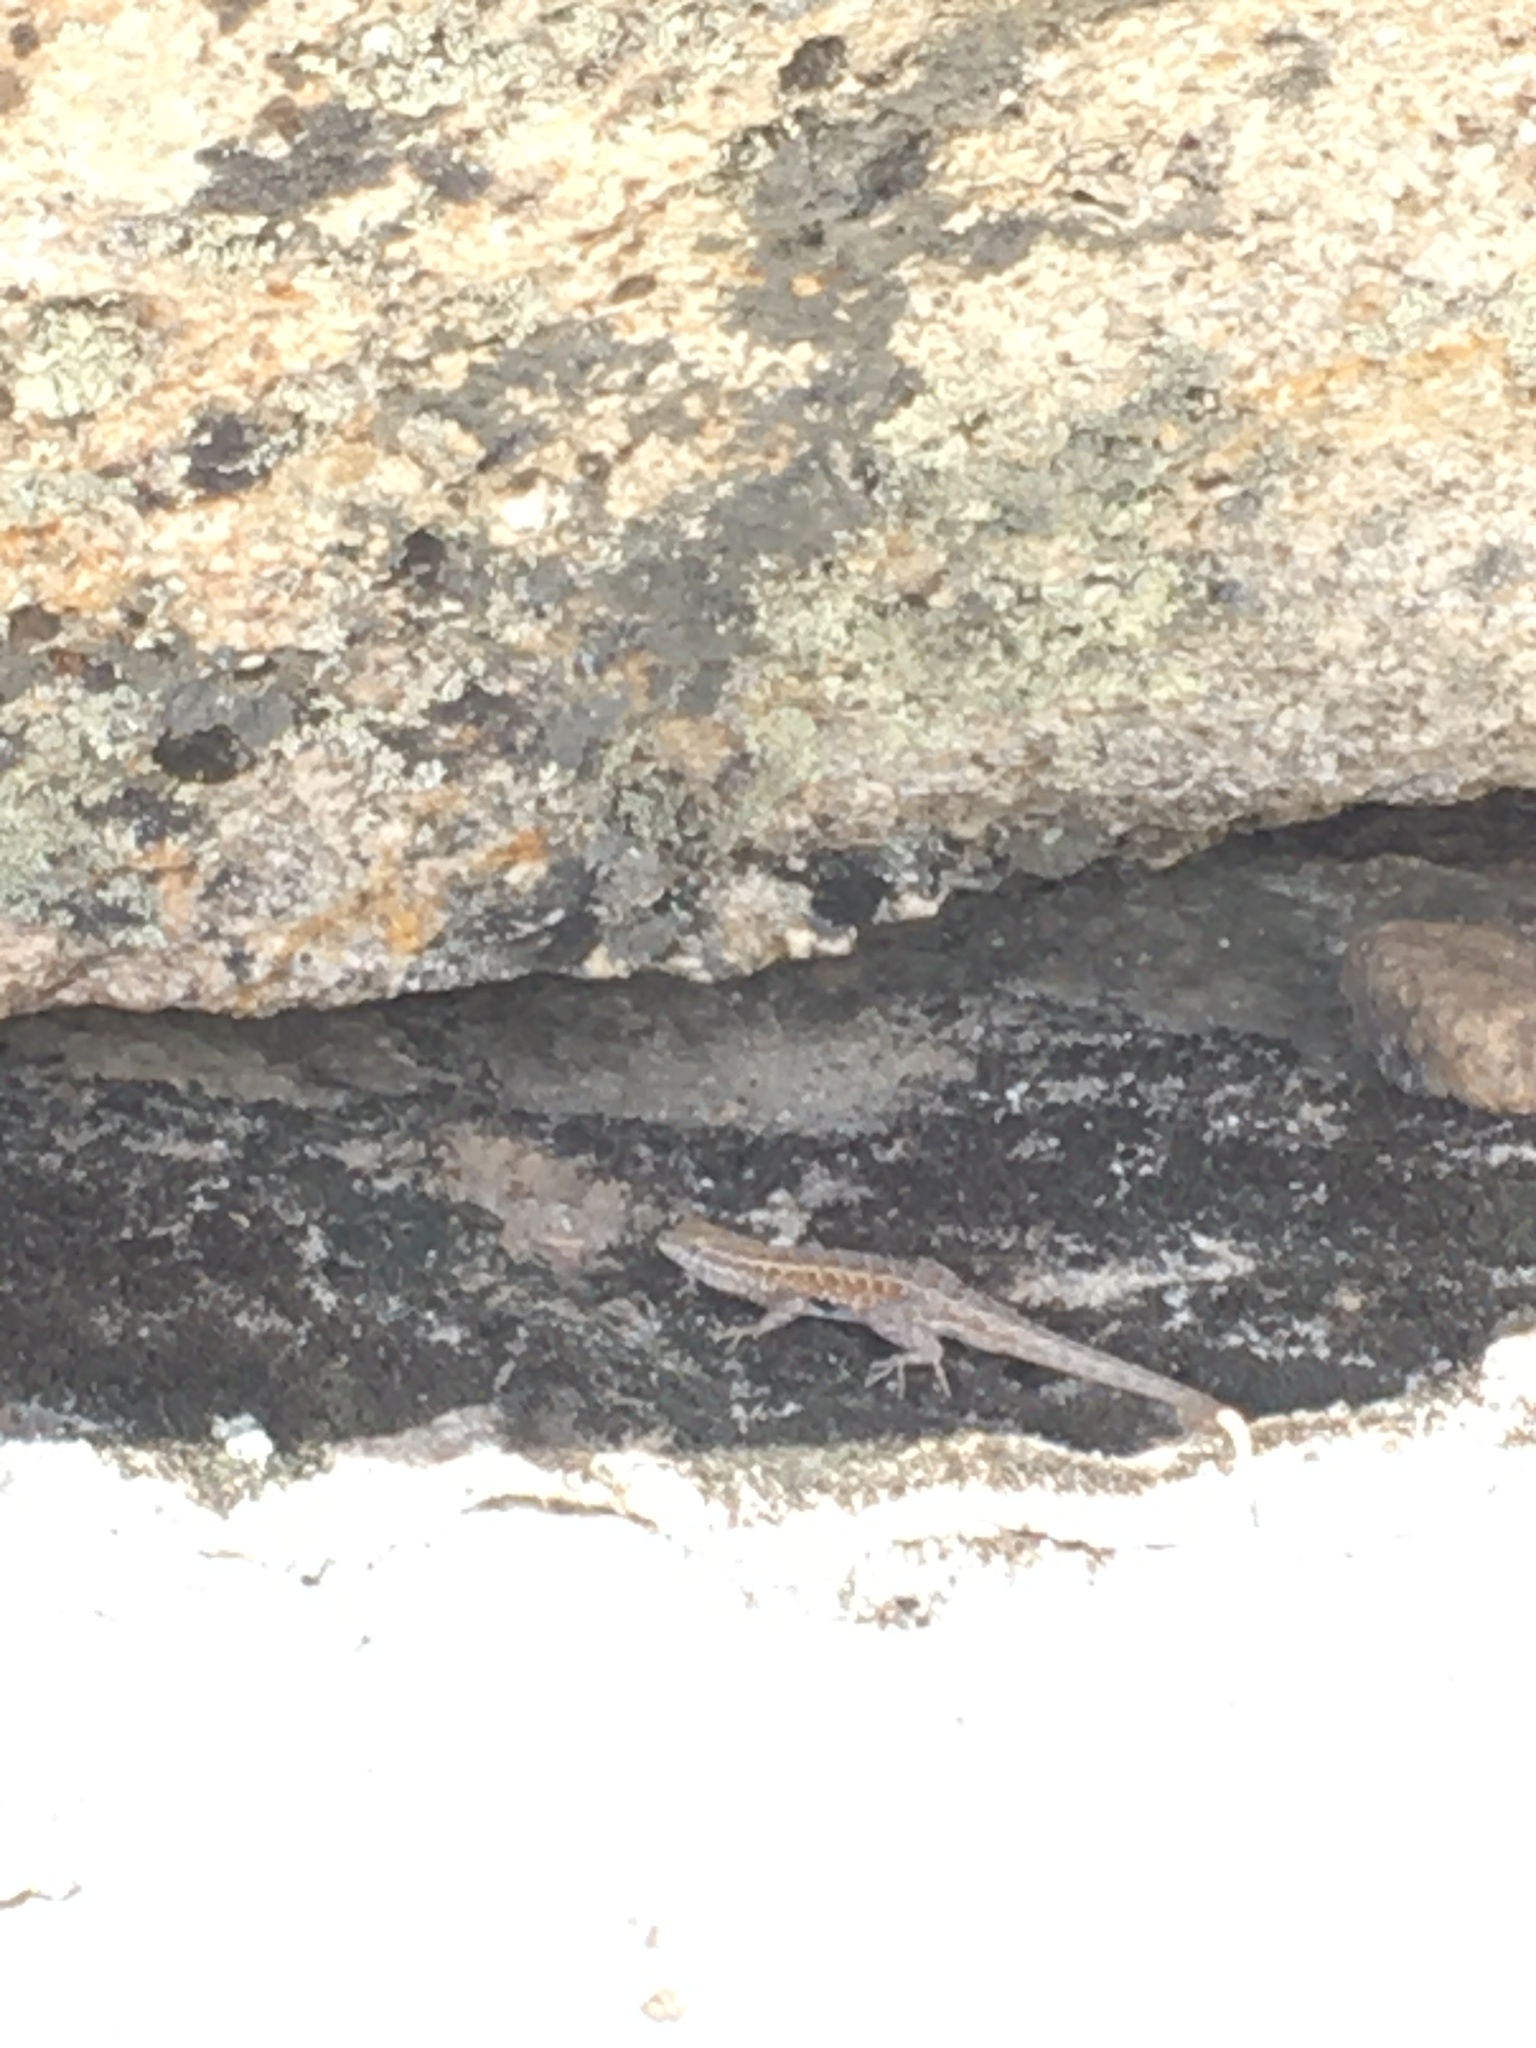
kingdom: Animalia
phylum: Chordata
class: Squamata
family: Phrynosomatidae
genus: Uta
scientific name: Uta stansburiana
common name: Side-blotched lizard
